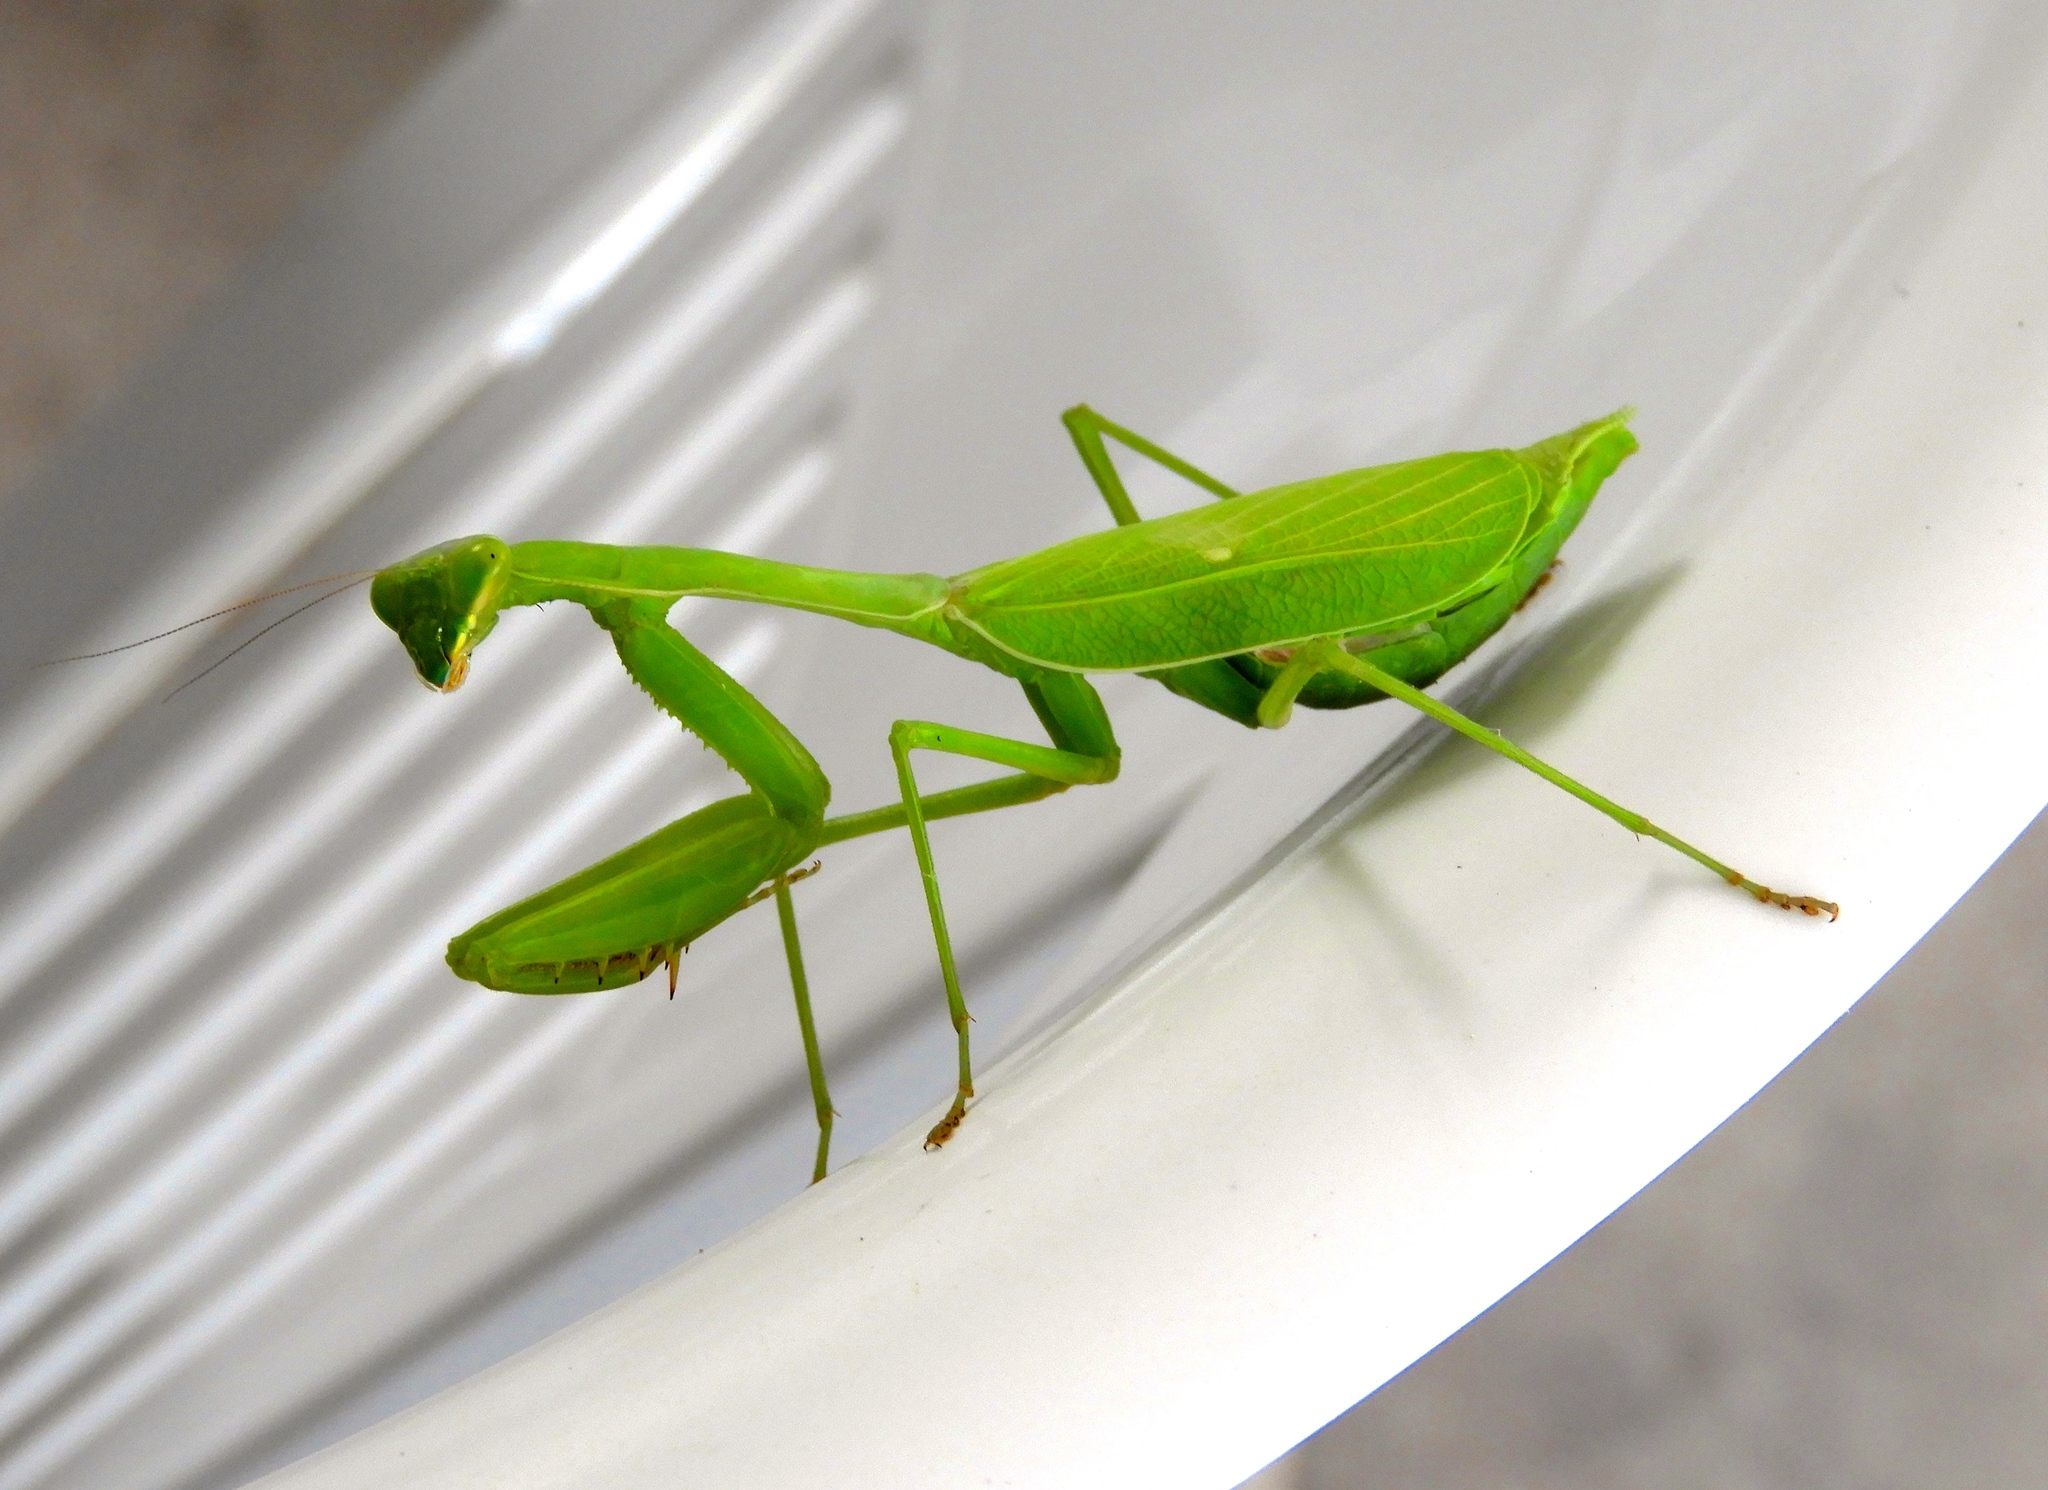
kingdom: Animalia
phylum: Arthropoda
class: Insecta
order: Mantodea
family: Mantidae
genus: Stagmomantis
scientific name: Stagmomantis limbata
